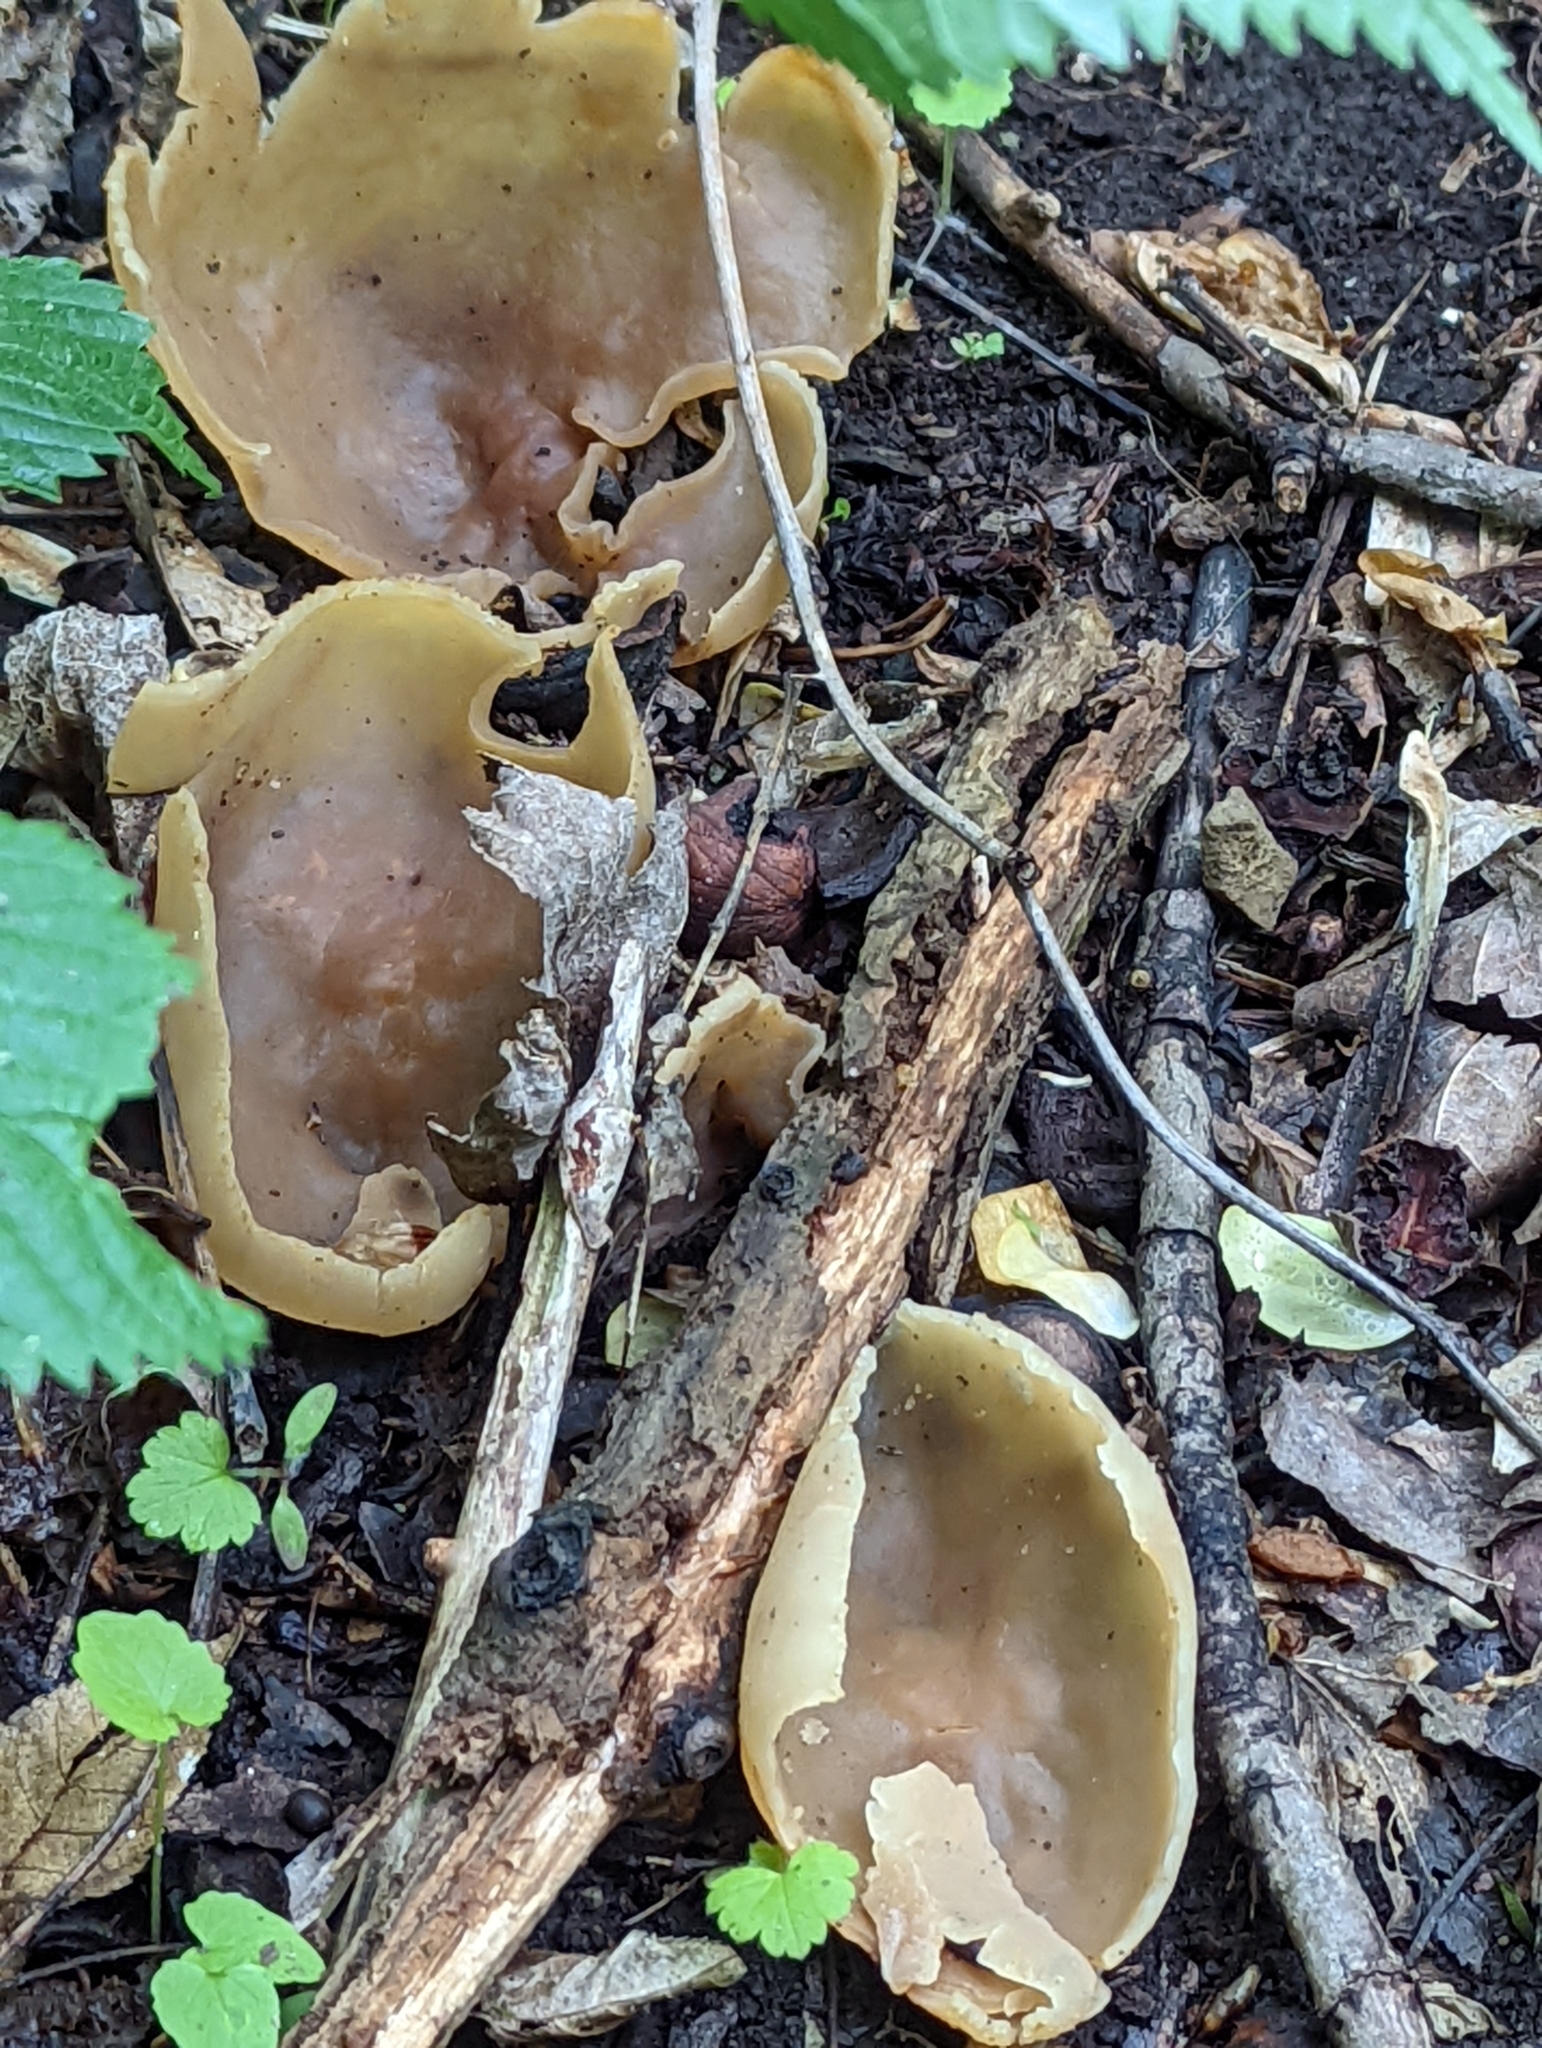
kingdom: Fungi
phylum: Ascomycota
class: Pezizomycetes
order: Pezizales
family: Pezizaceae
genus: Peziza
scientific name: Peziza varia
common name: Layered cup
